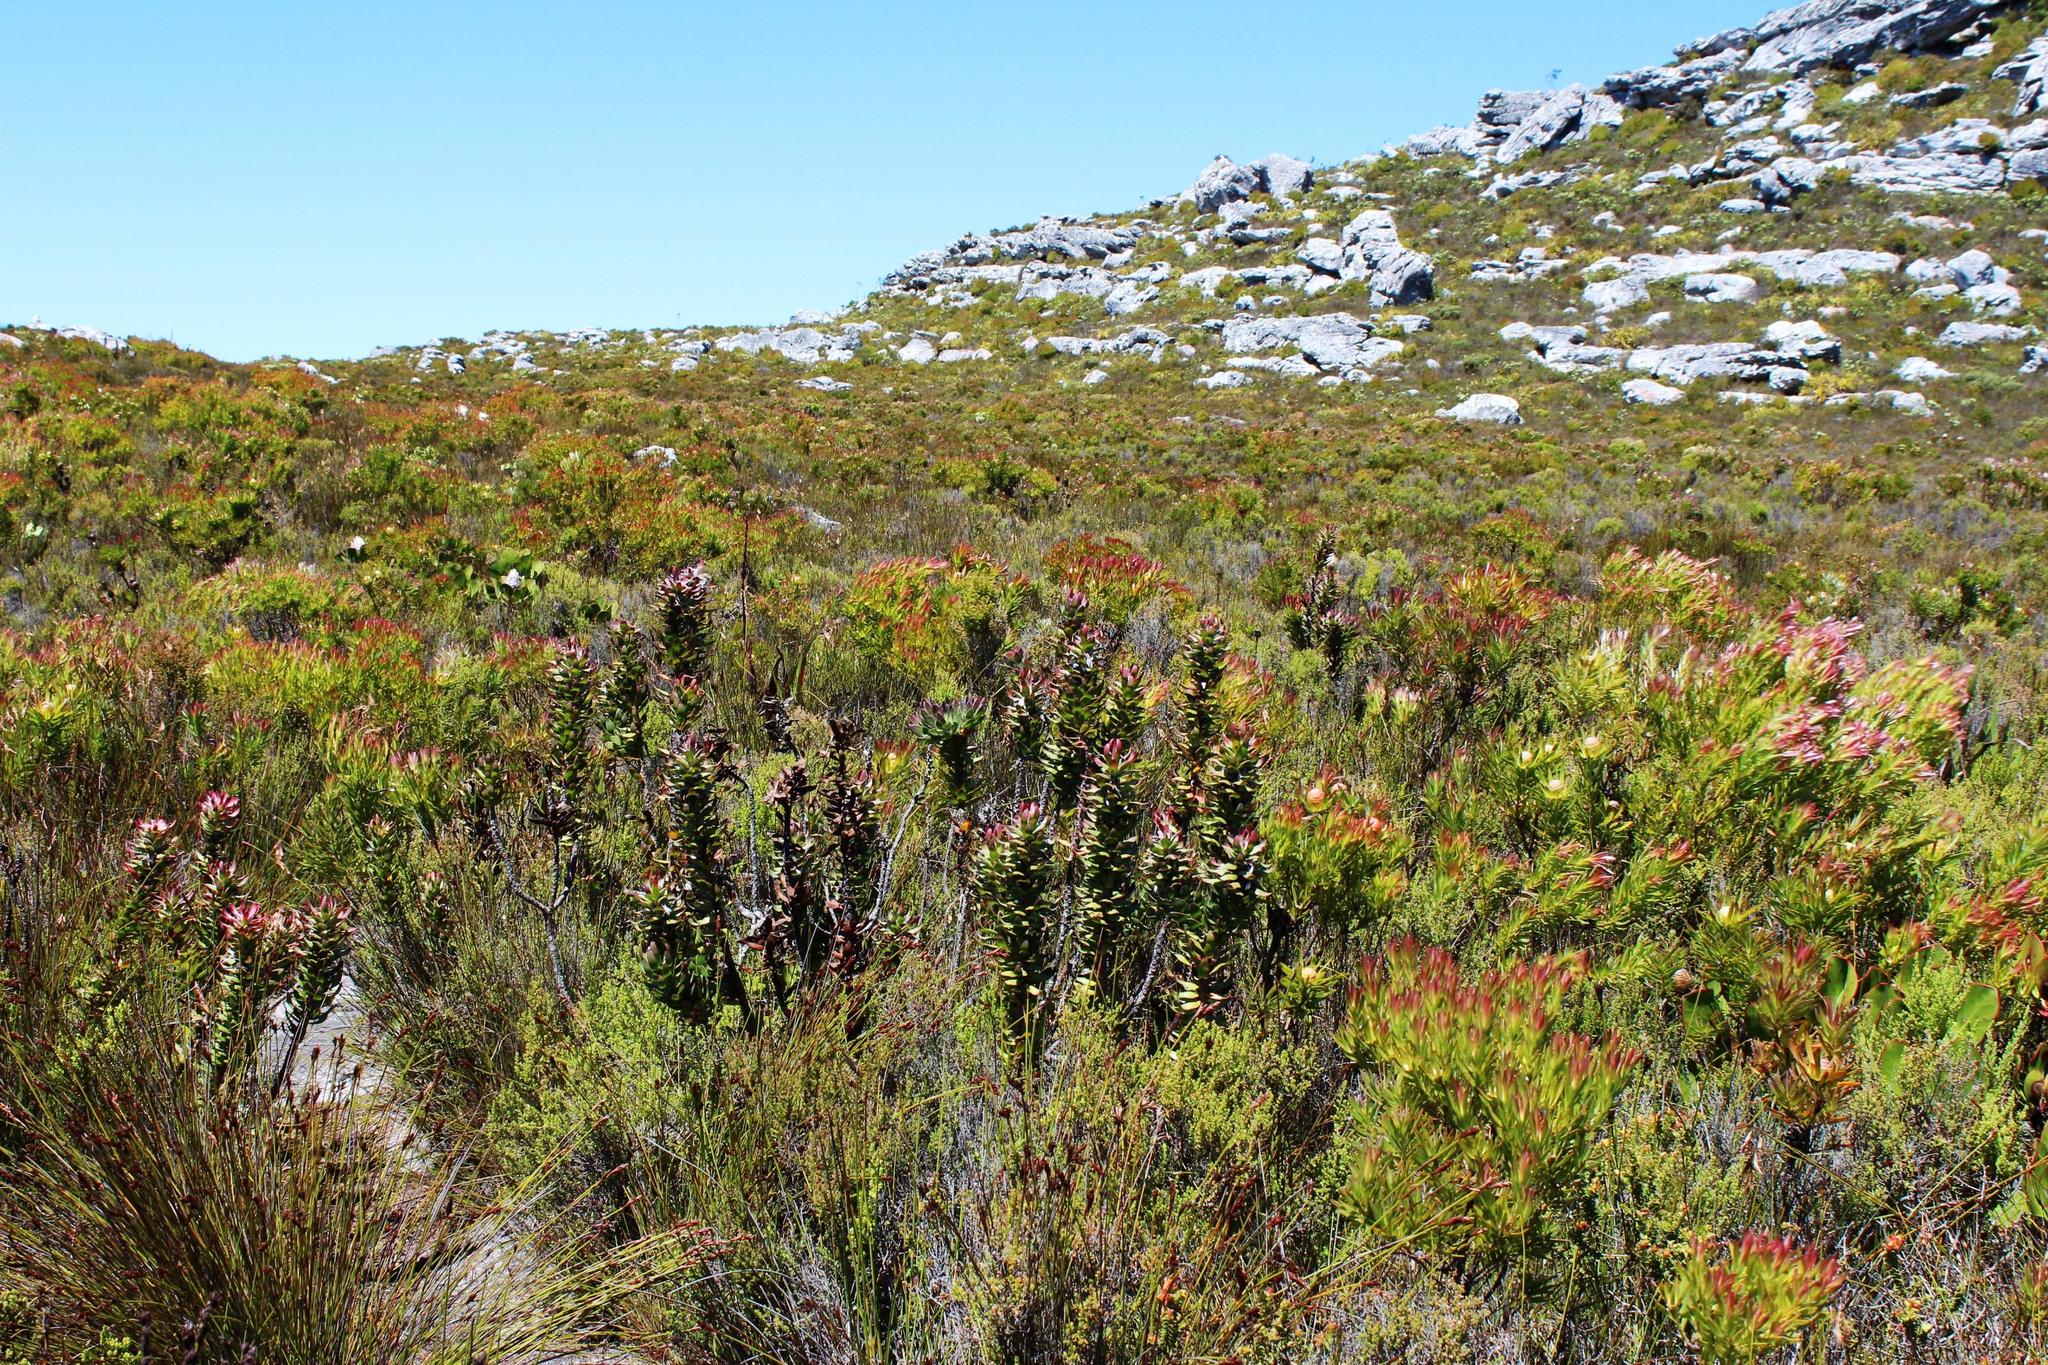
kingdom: Plantae
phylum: Tracheophyta
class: Magnoliopsida
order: Proteales
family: Proteaceae
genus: Mimetes
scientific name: Mimetes cucullatus
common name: Common pagoda
